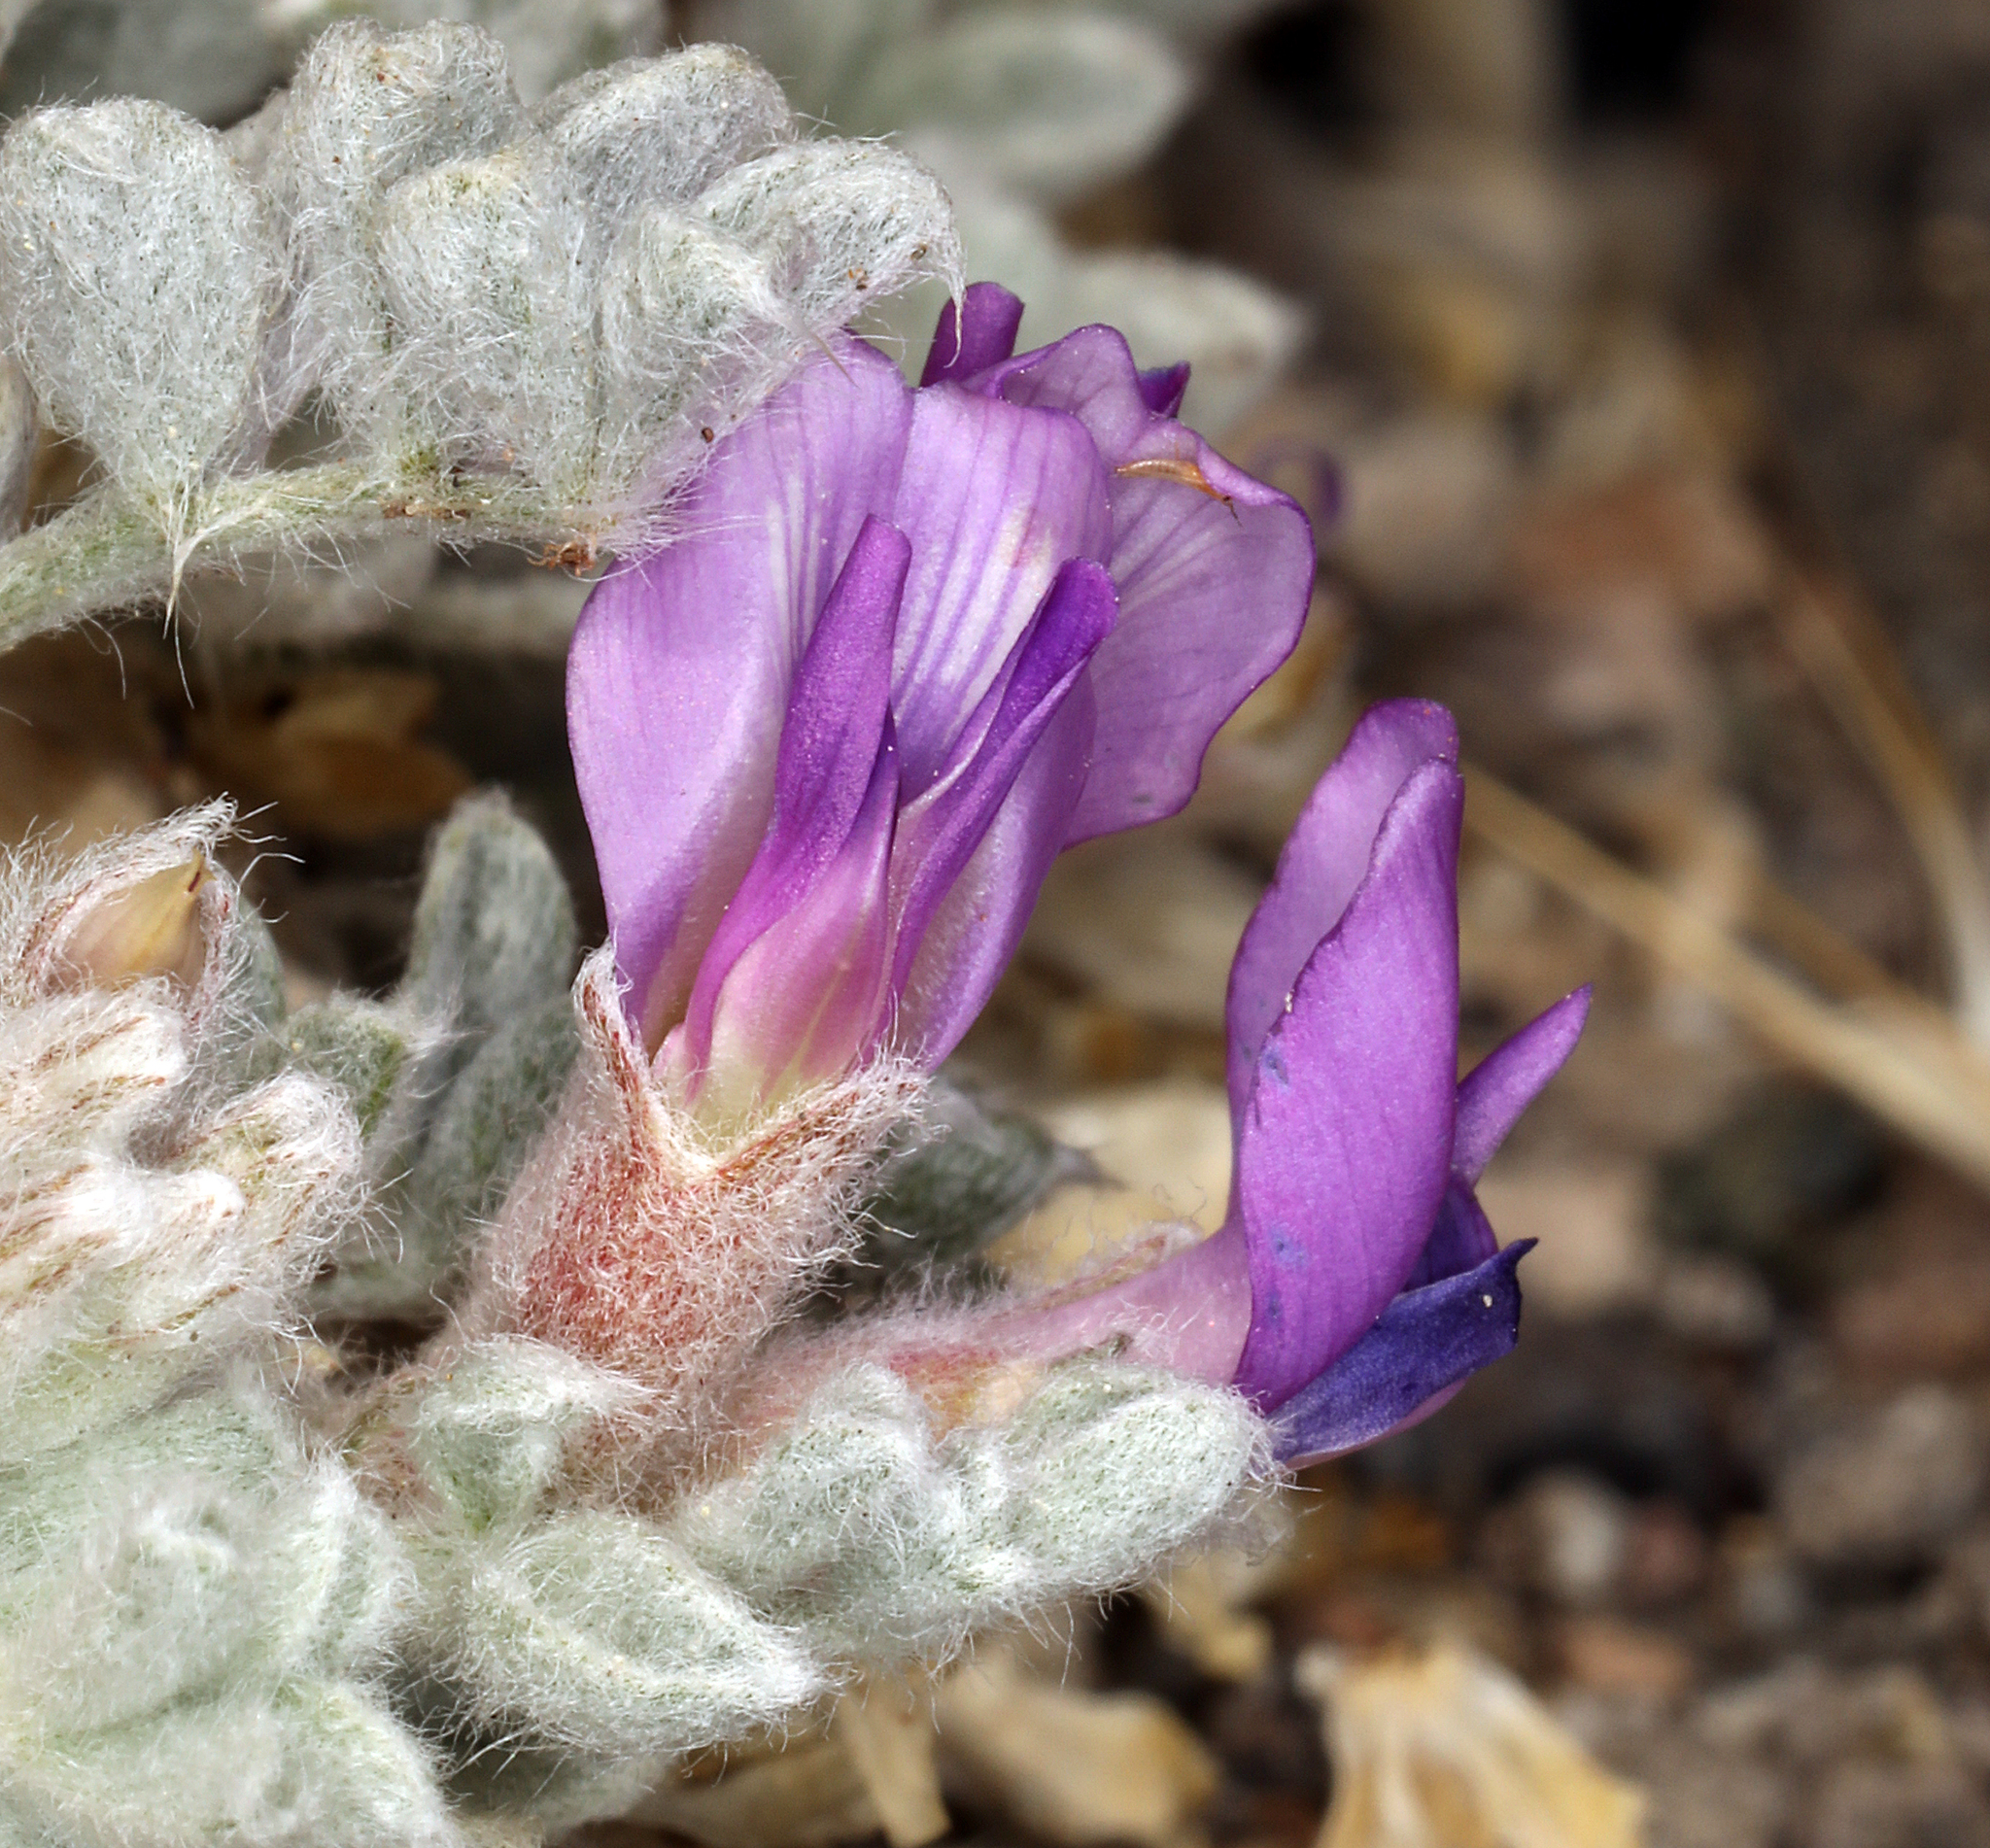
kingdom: Plantae
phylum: Tracheophyta
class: Magnoliopsida
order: Fabales
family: Fabaceae
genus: Astragalus
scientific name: Astragalus purshii
